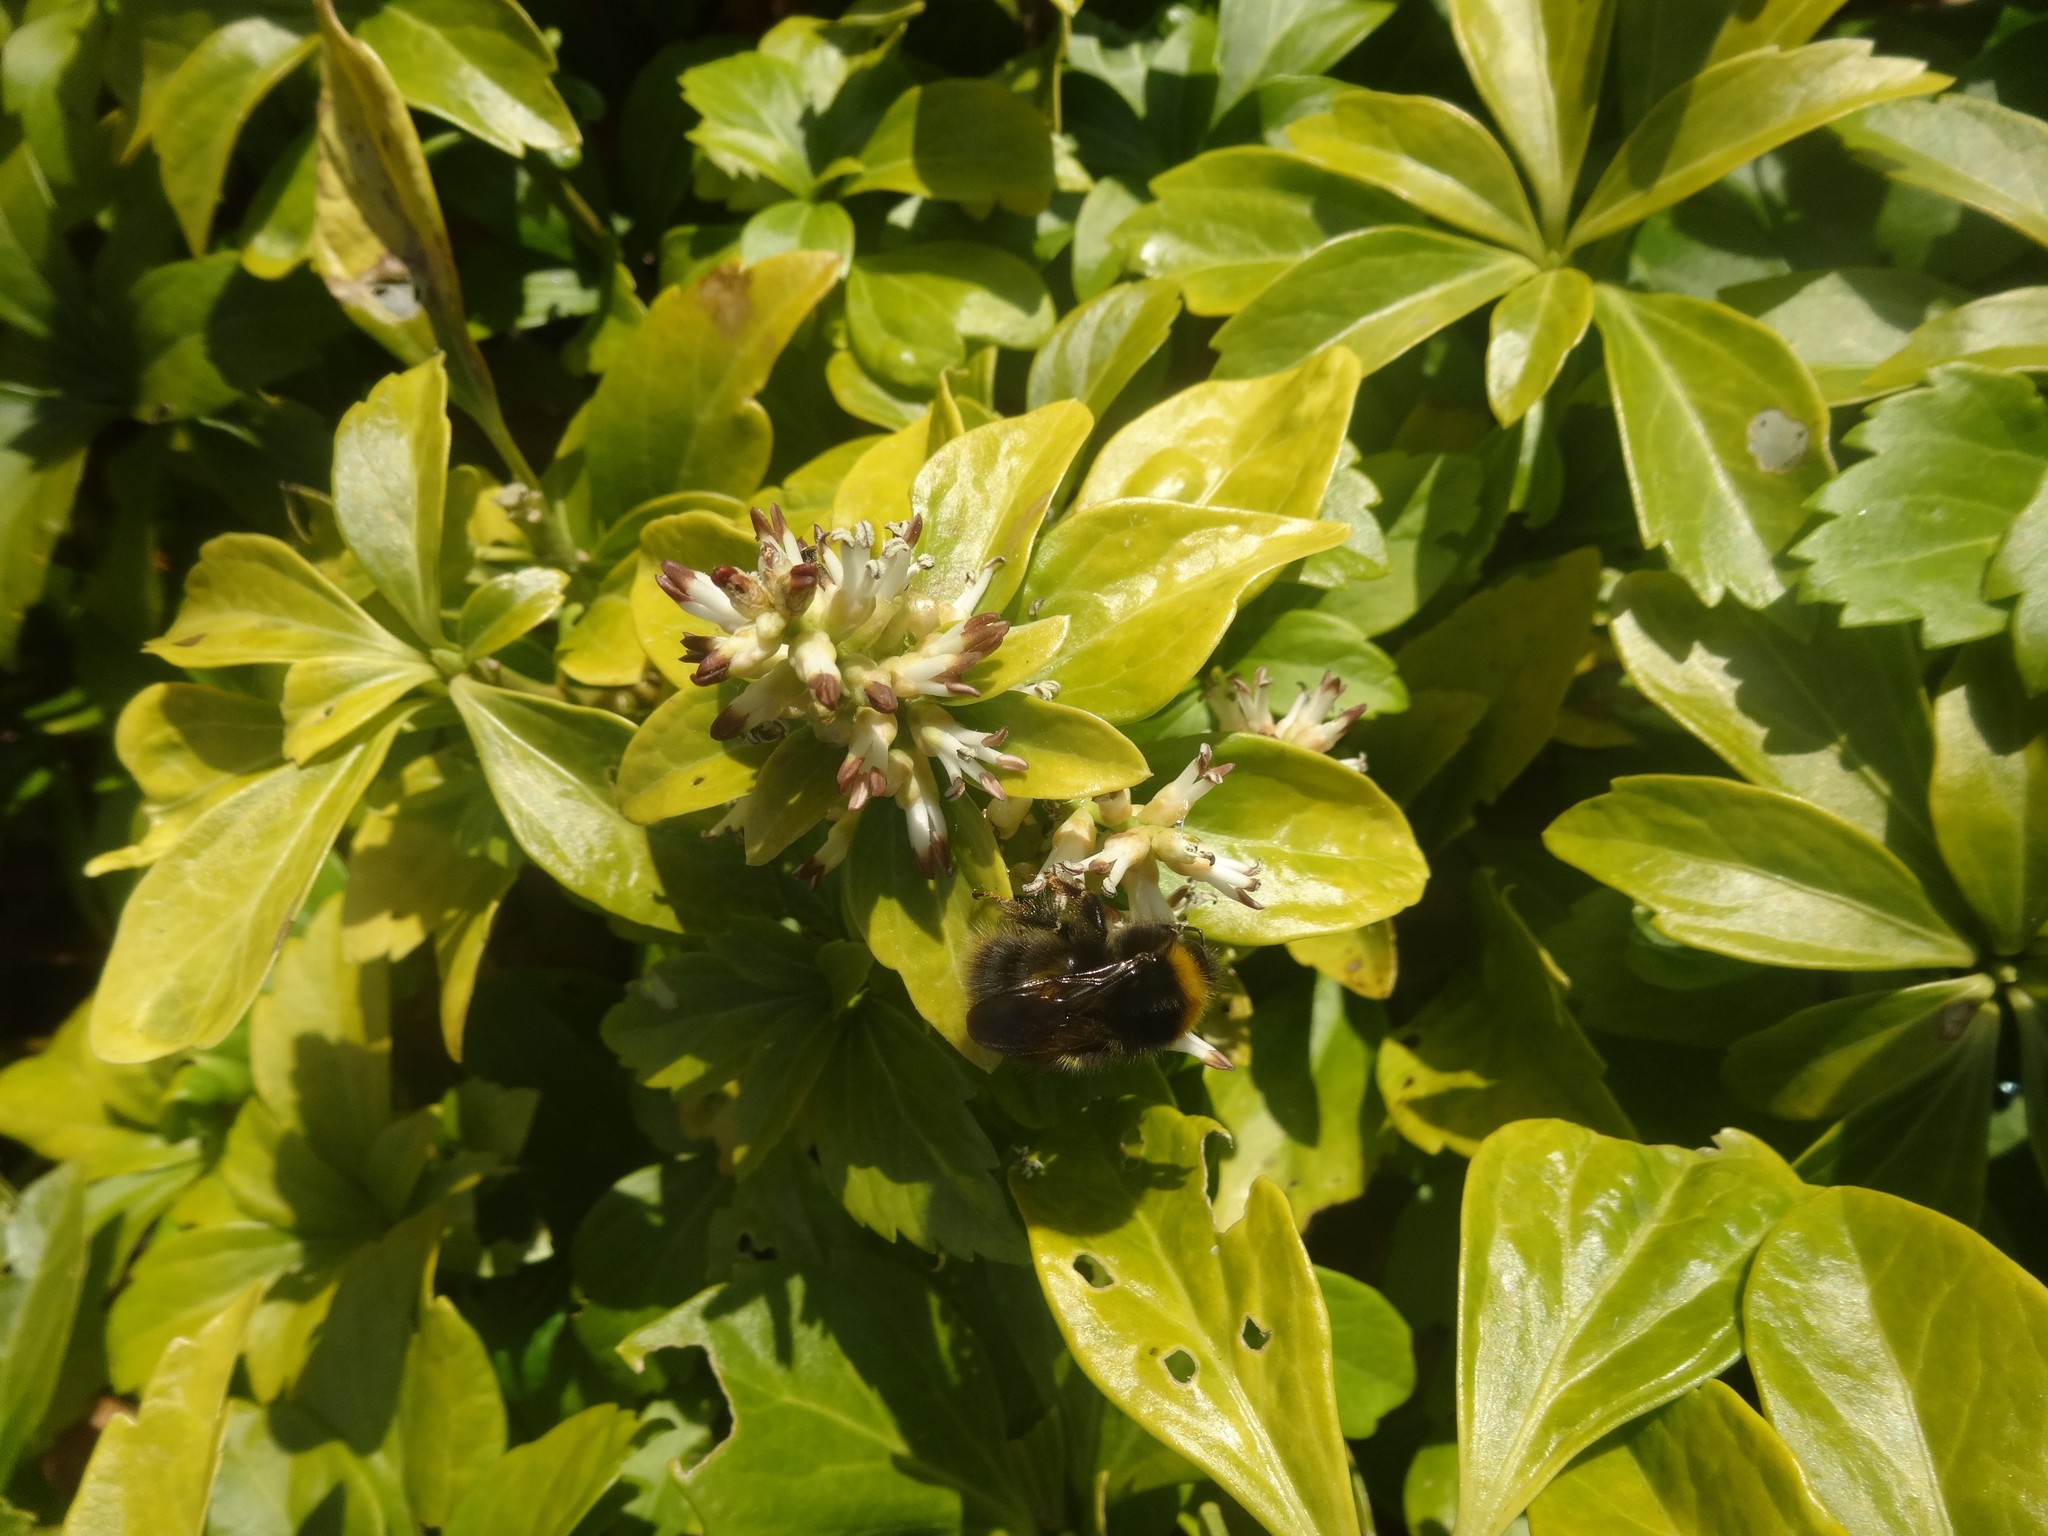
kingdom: Animalia
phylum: Arthropoda
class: Insecta
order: Hymenoptera
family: Apidae
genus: Bombus
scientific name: Bombus pratorum
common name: Early humble-bee
